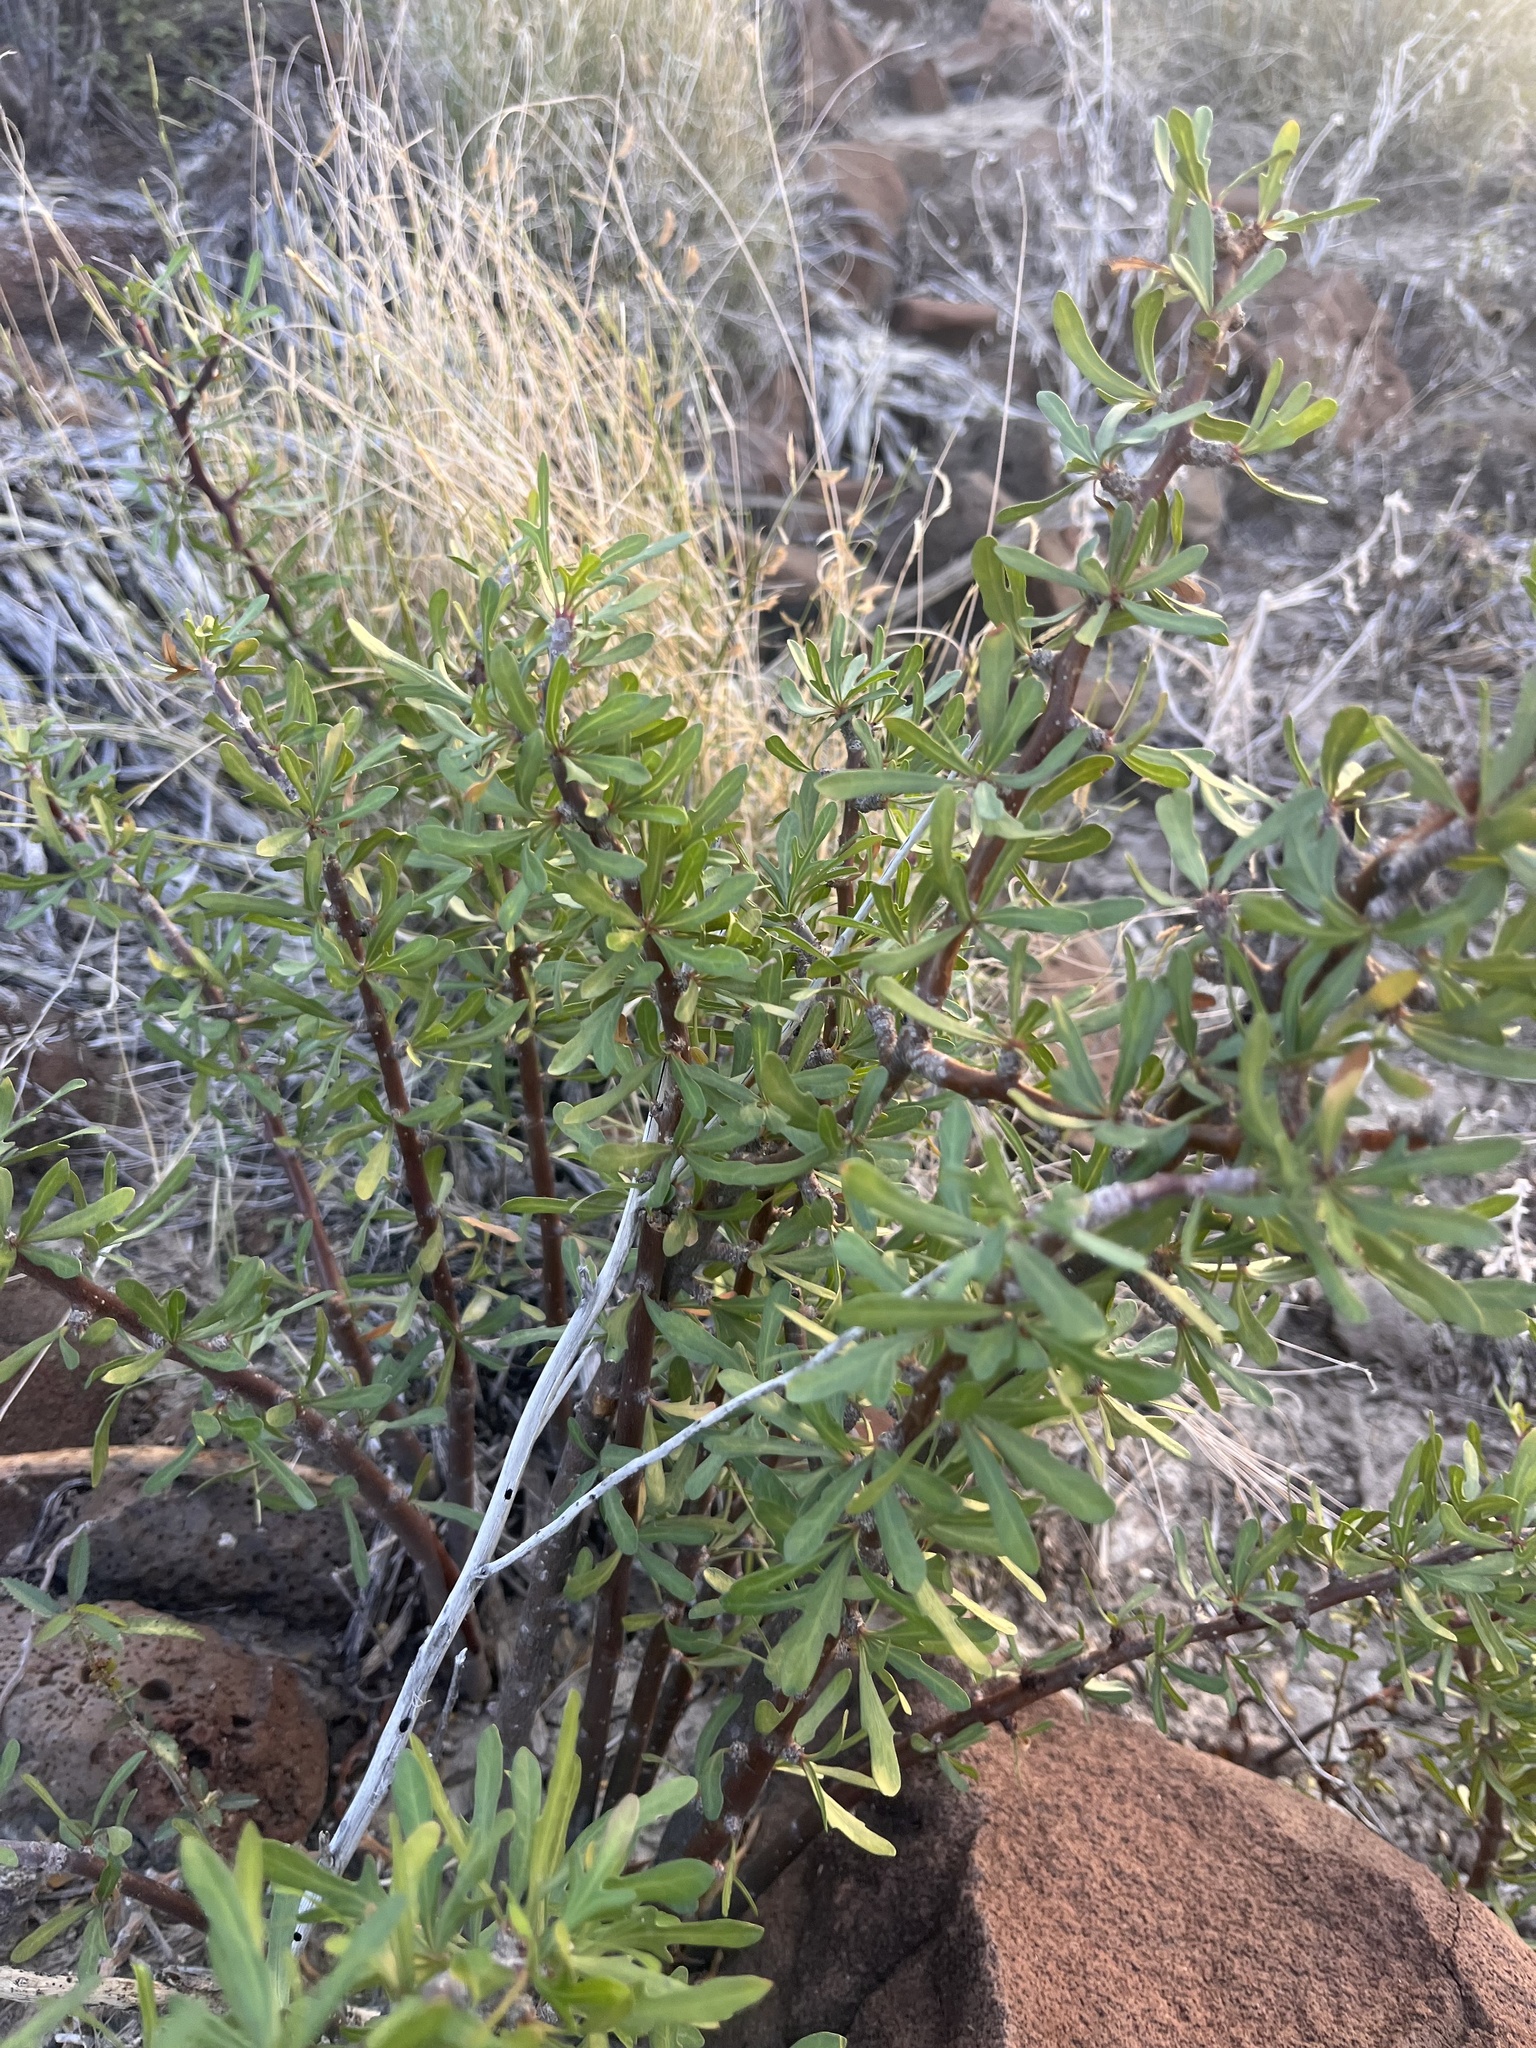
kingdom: Plantae
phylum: Tracheophyta
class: Magnoliopsida
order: Malpighiales
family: Euphorbiaceae
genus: Jatropha
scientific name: Jatropha dioica
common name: Leatherstem
